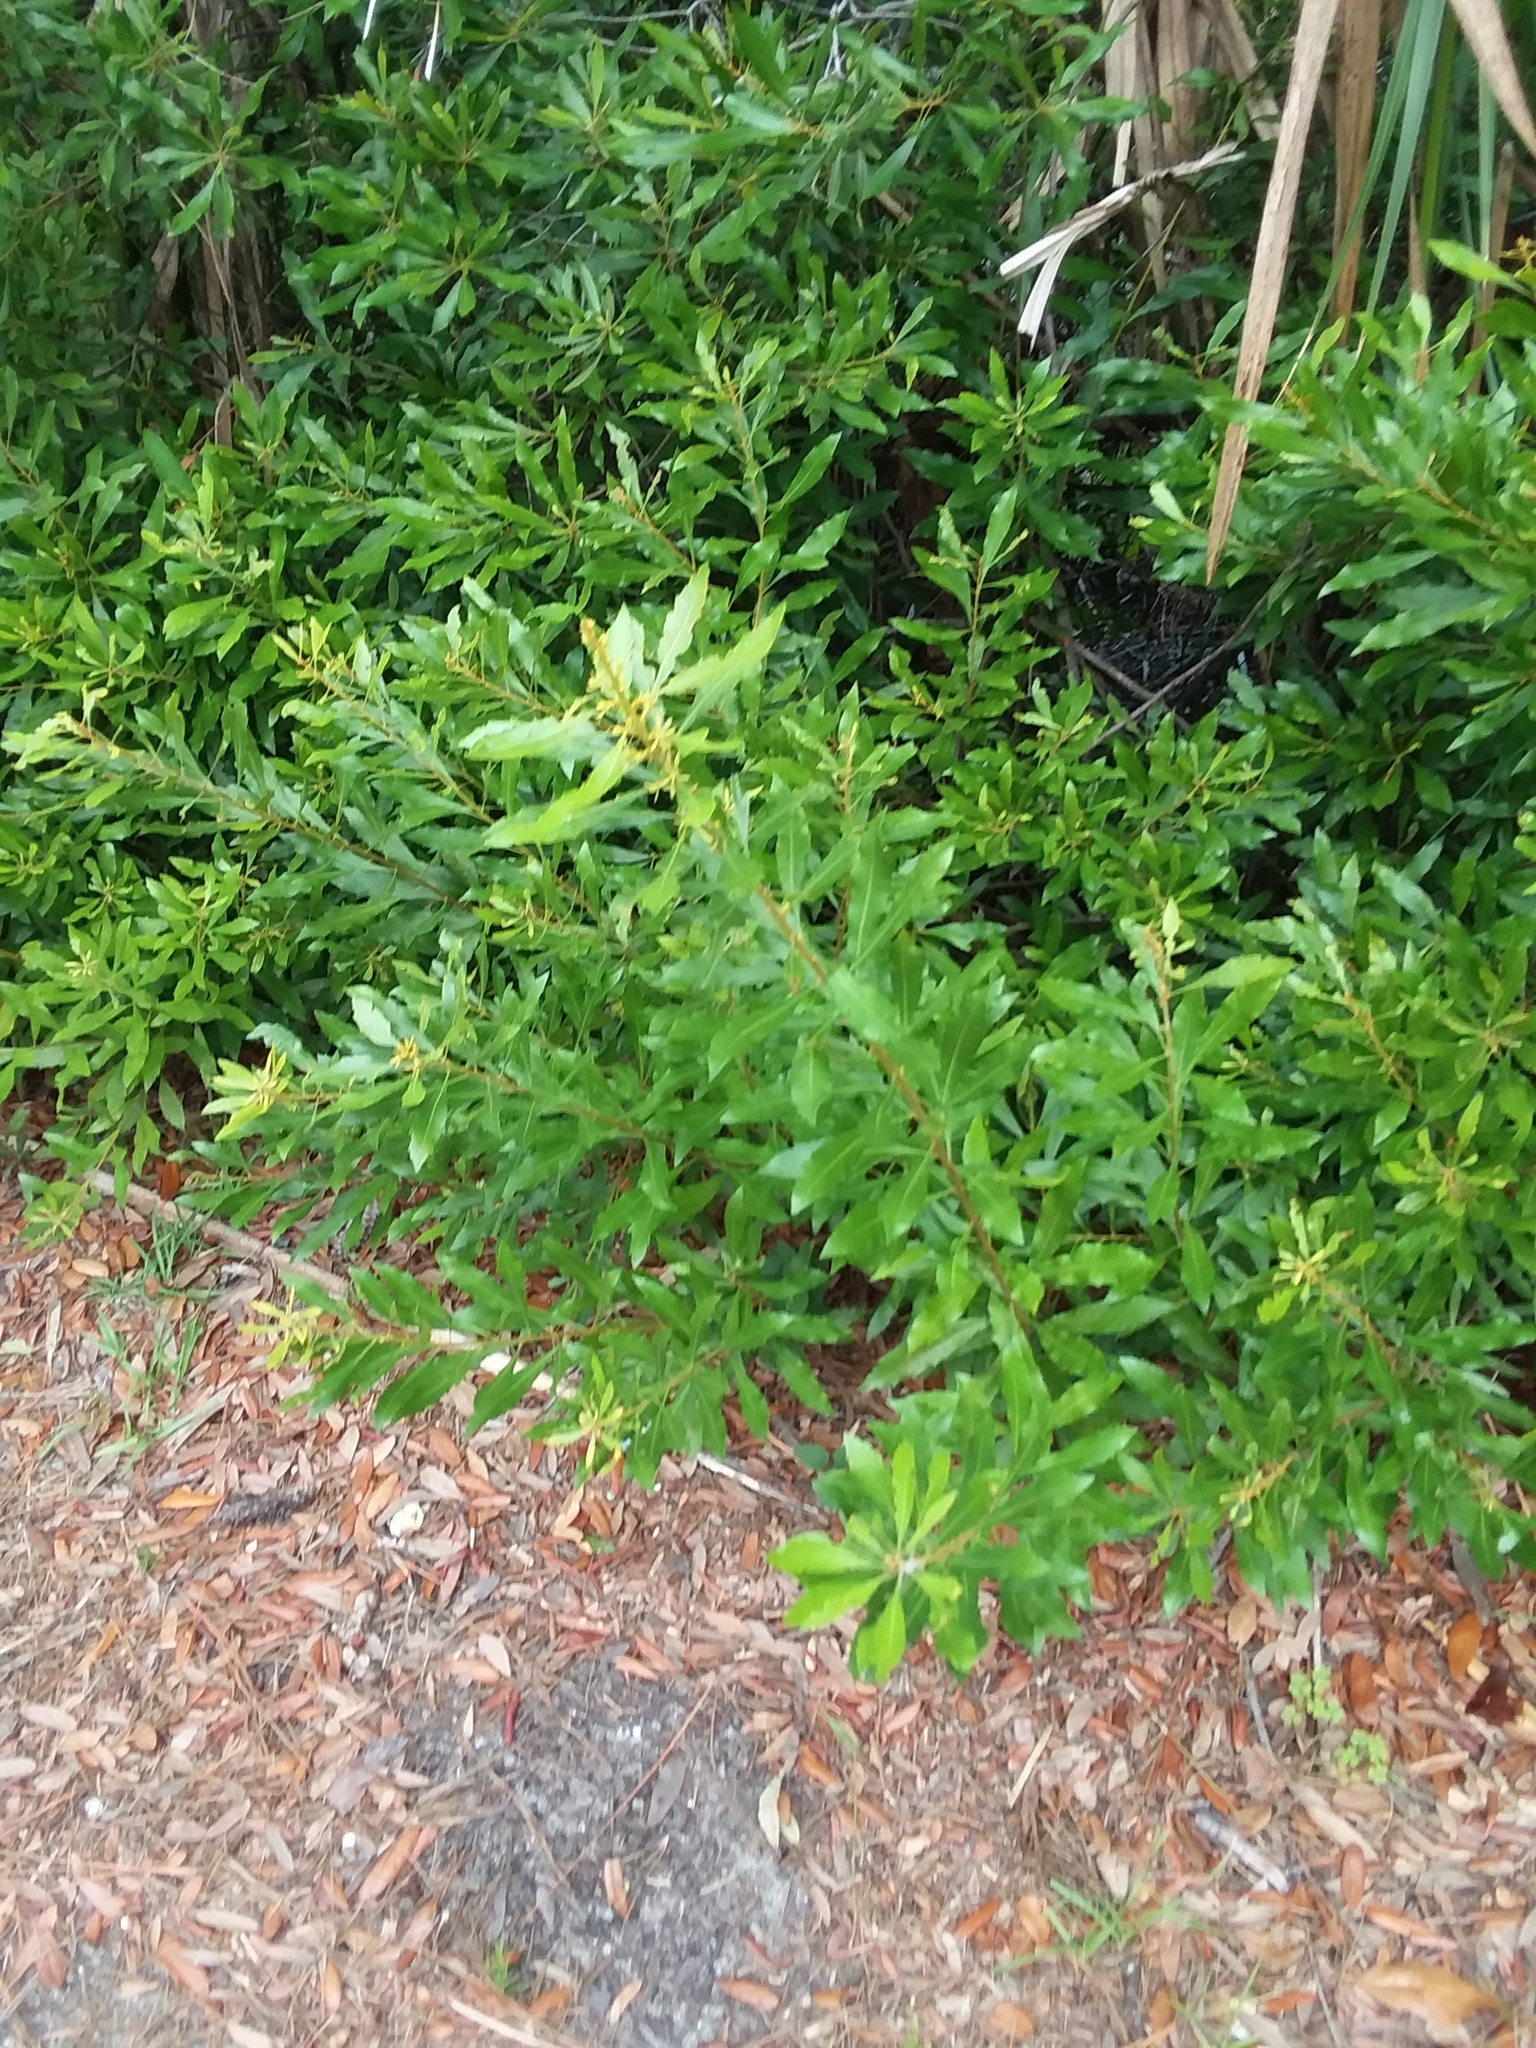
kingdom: Plantae
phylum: Tracheophyta
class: Magnoliopsida
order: Fagales
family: Myricaceae
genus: Morella
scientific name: Morella cerifera
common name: Wax myrtle
